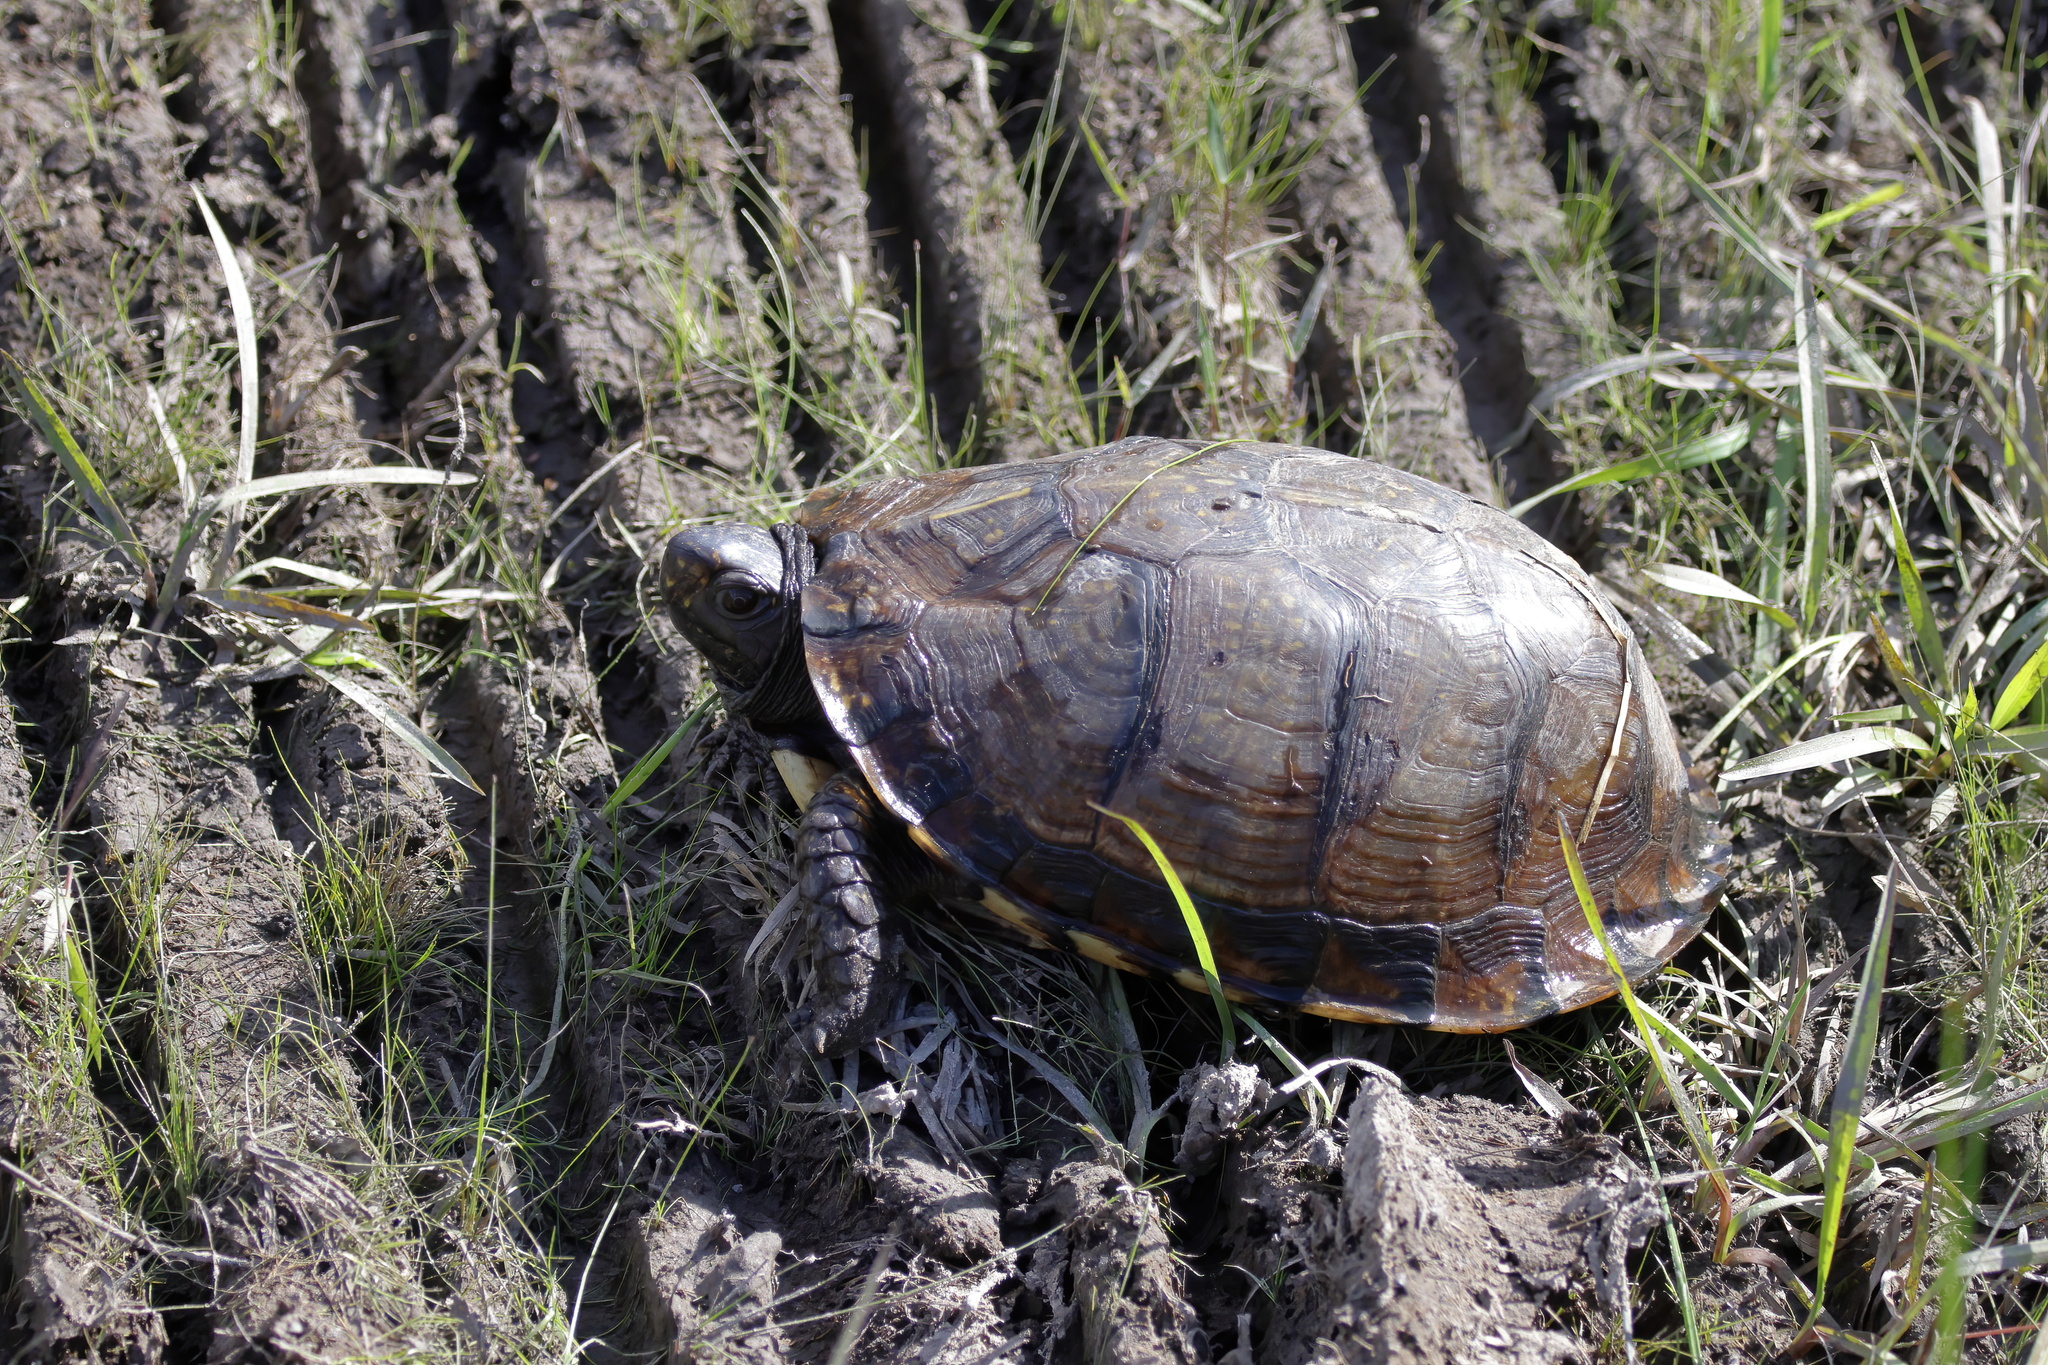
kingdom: Animalia
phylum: Chordata
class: Testudines
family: Emydidae
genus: Terrapene
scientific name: Terrapene carolina
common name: Common box turtle
